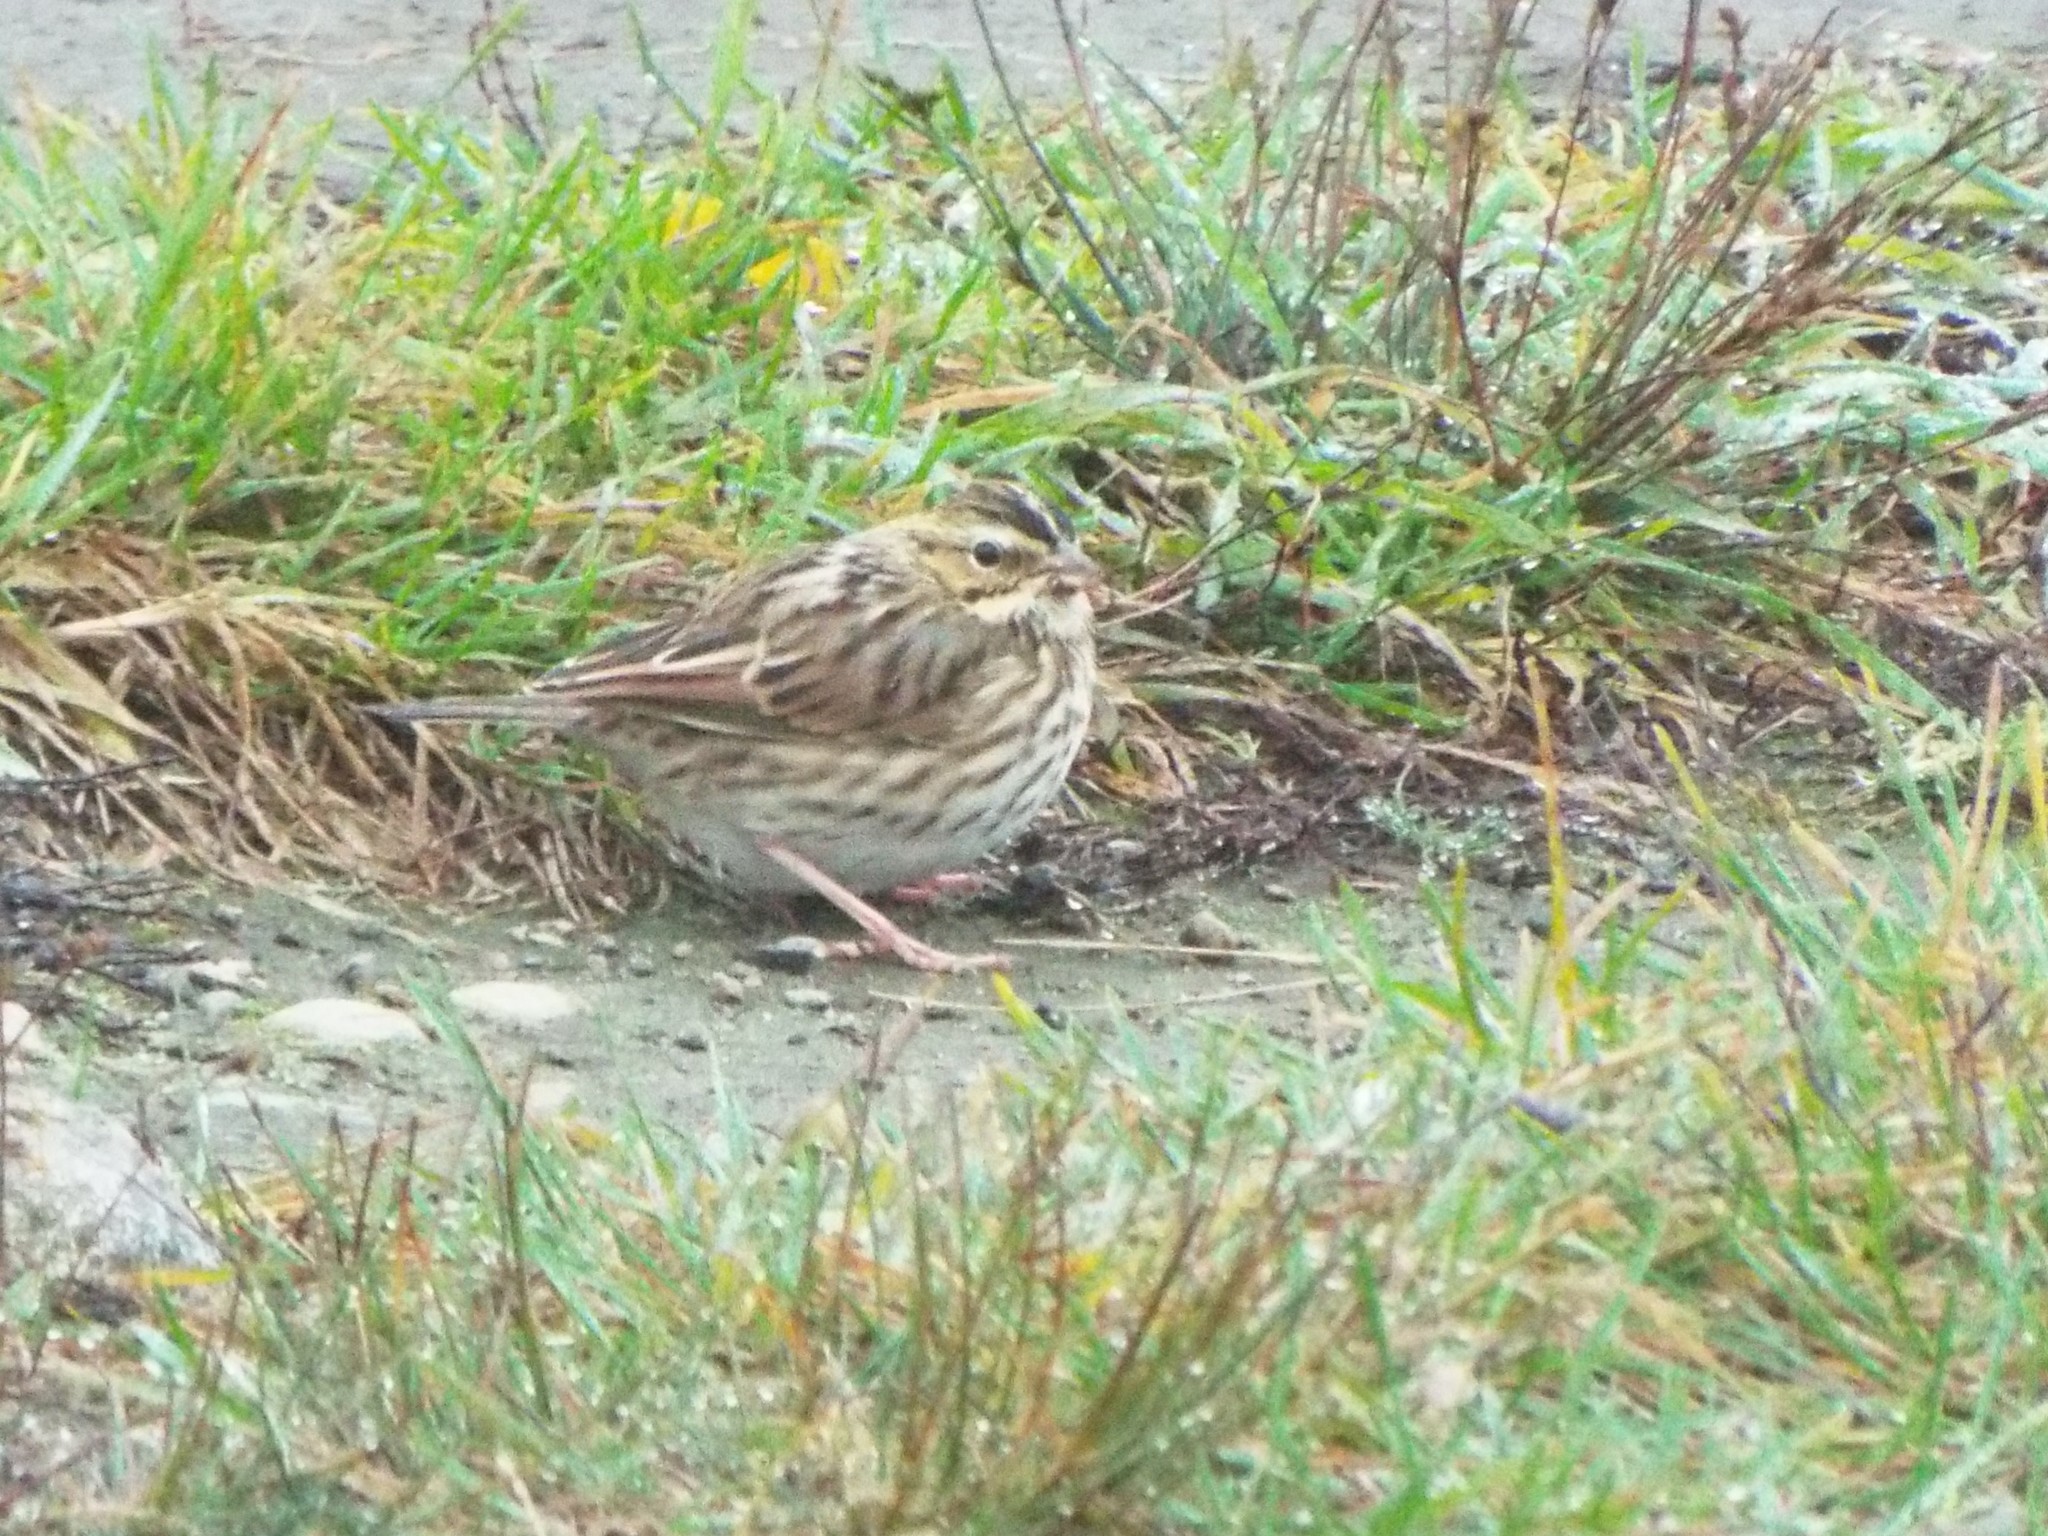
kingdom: Animalia
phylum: Chordata
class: Aves
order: Passeriformes
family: Passerellidae
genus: Passerculus
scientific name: Passerculus sandwichensis
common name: Savannah sparrow
